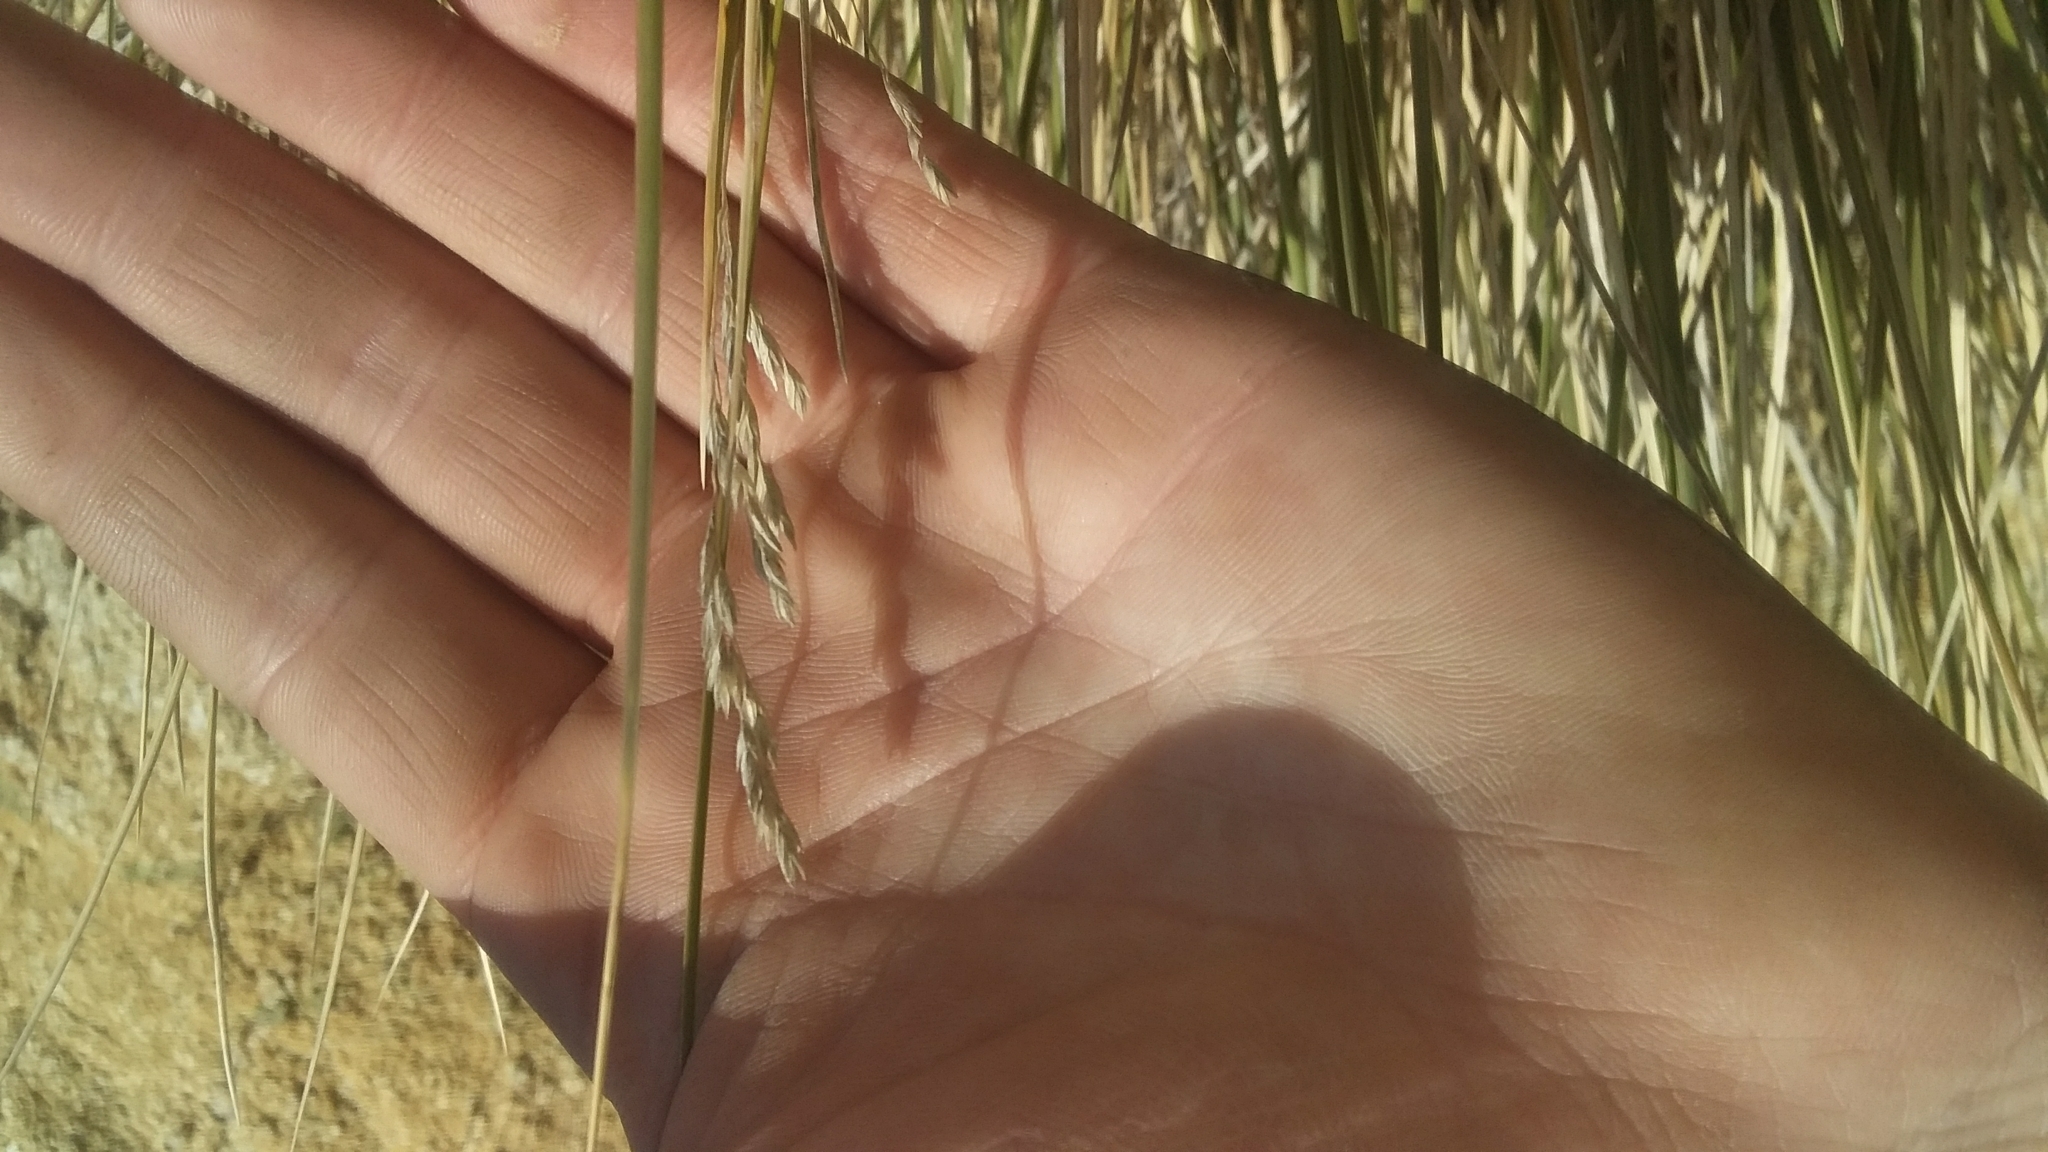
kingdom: Plantae
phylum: Tracheophyta
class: Liliopsida
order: Poales
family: Poaceae
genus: Poa
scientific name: Poa cita
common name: Silver tussock
